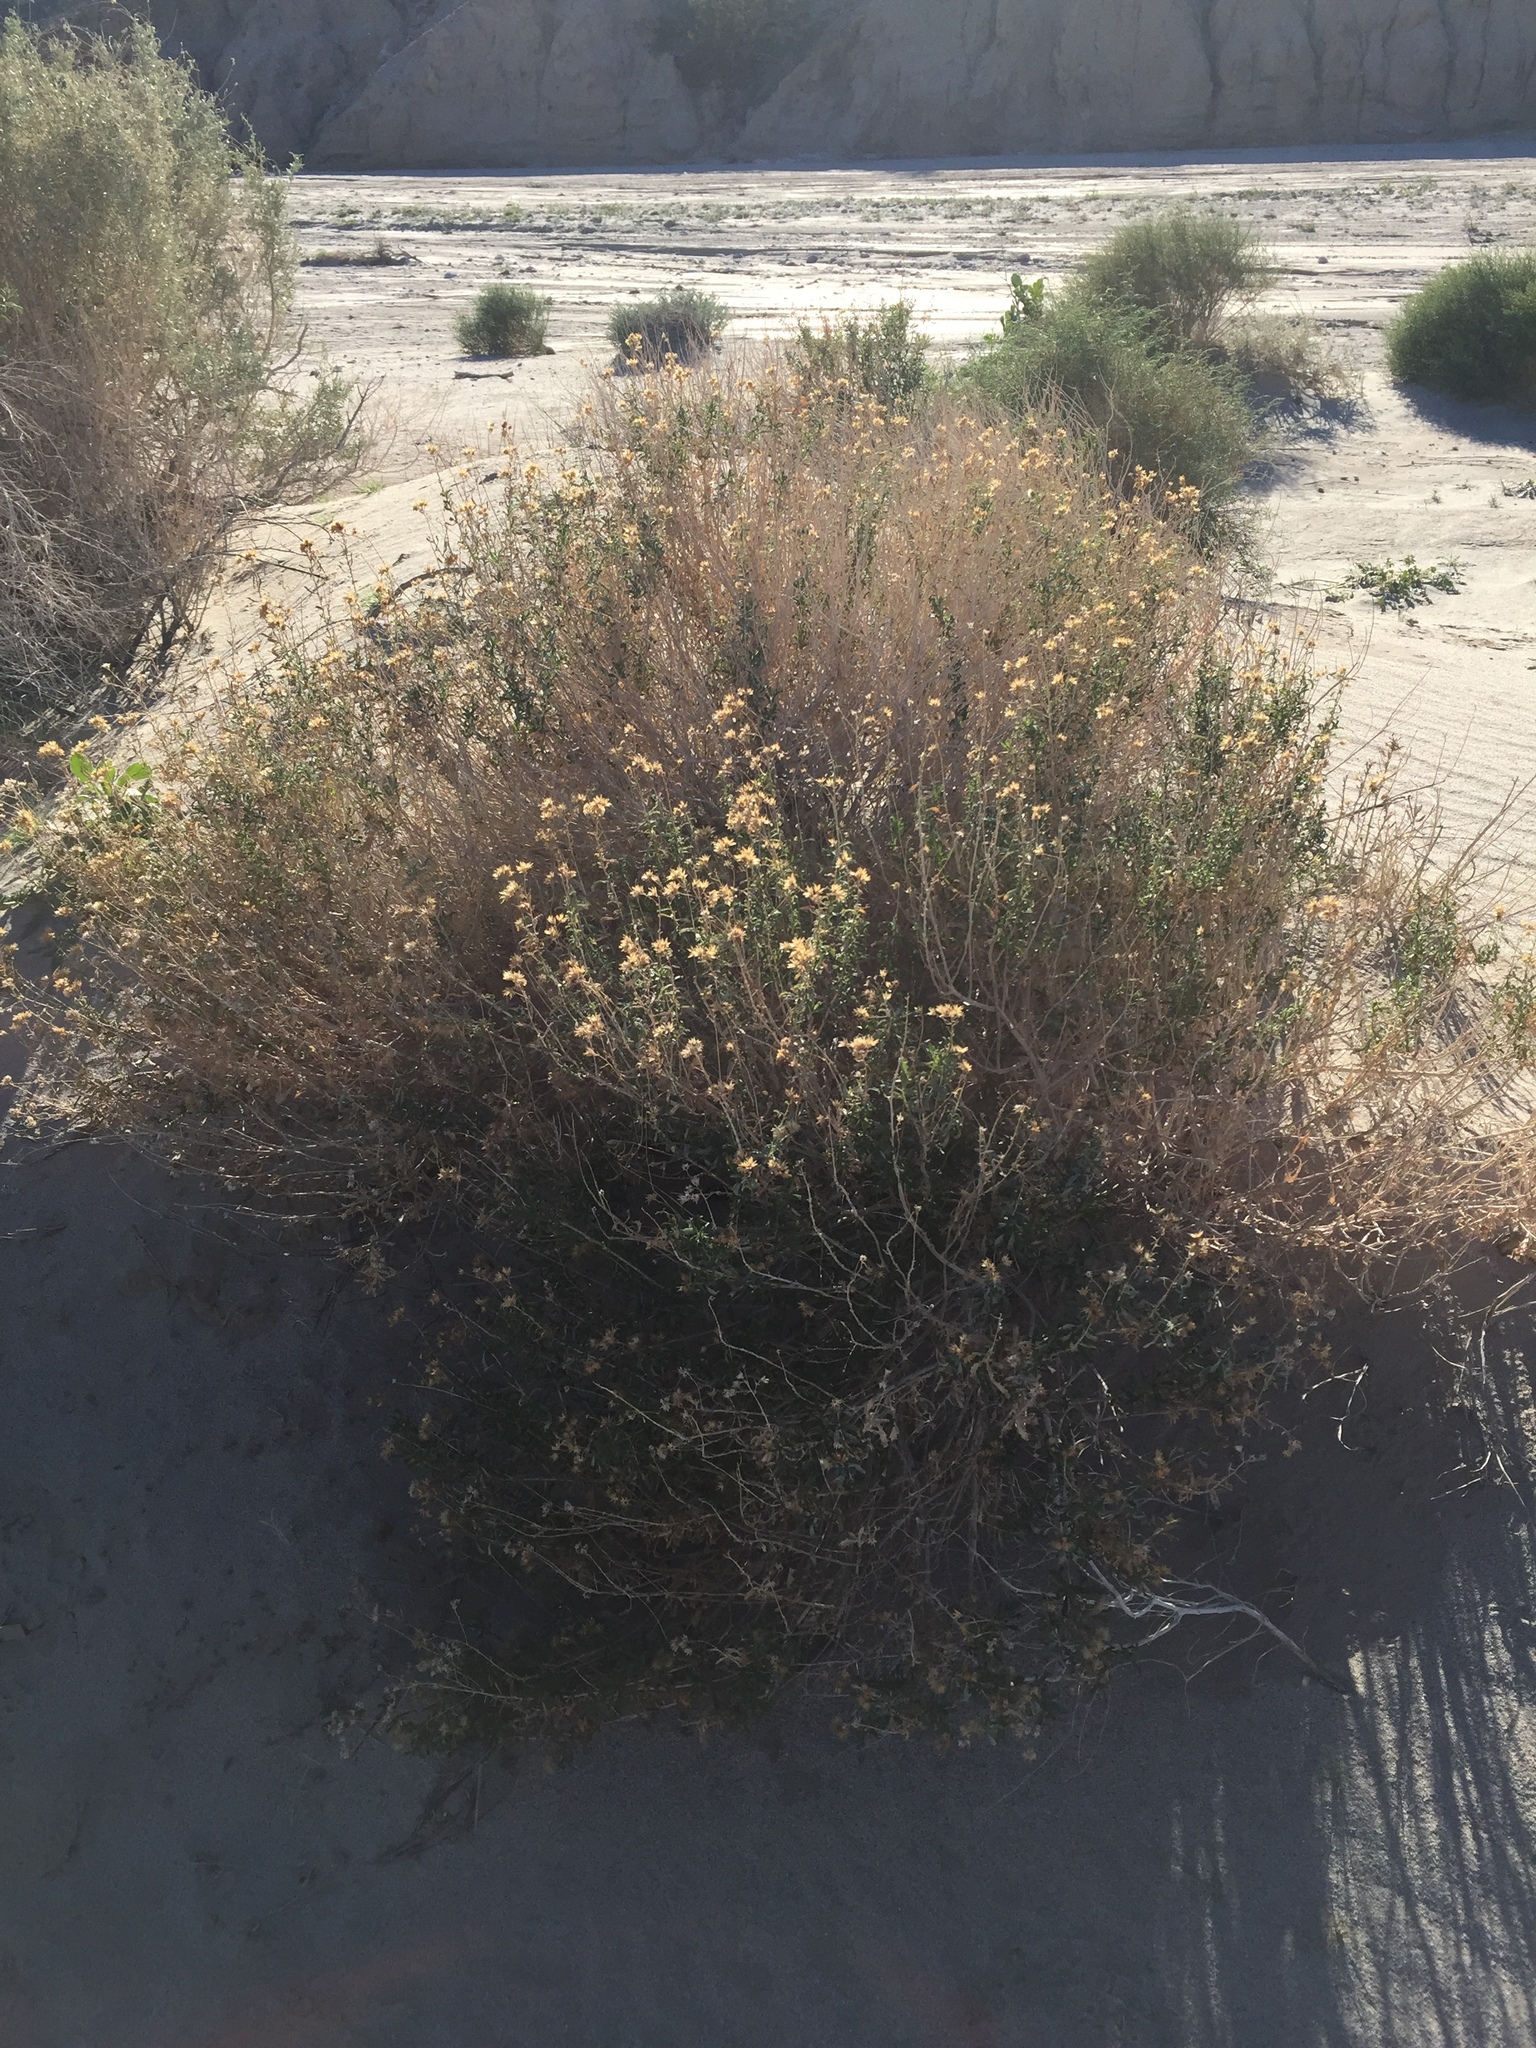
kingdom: Plantae
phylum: Tracheophyta
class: Magnoliopsida
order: Asterales
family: Asteraceae
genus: Isocoma
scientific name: Isocoma acradenia
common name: Alkali jimmyweed
